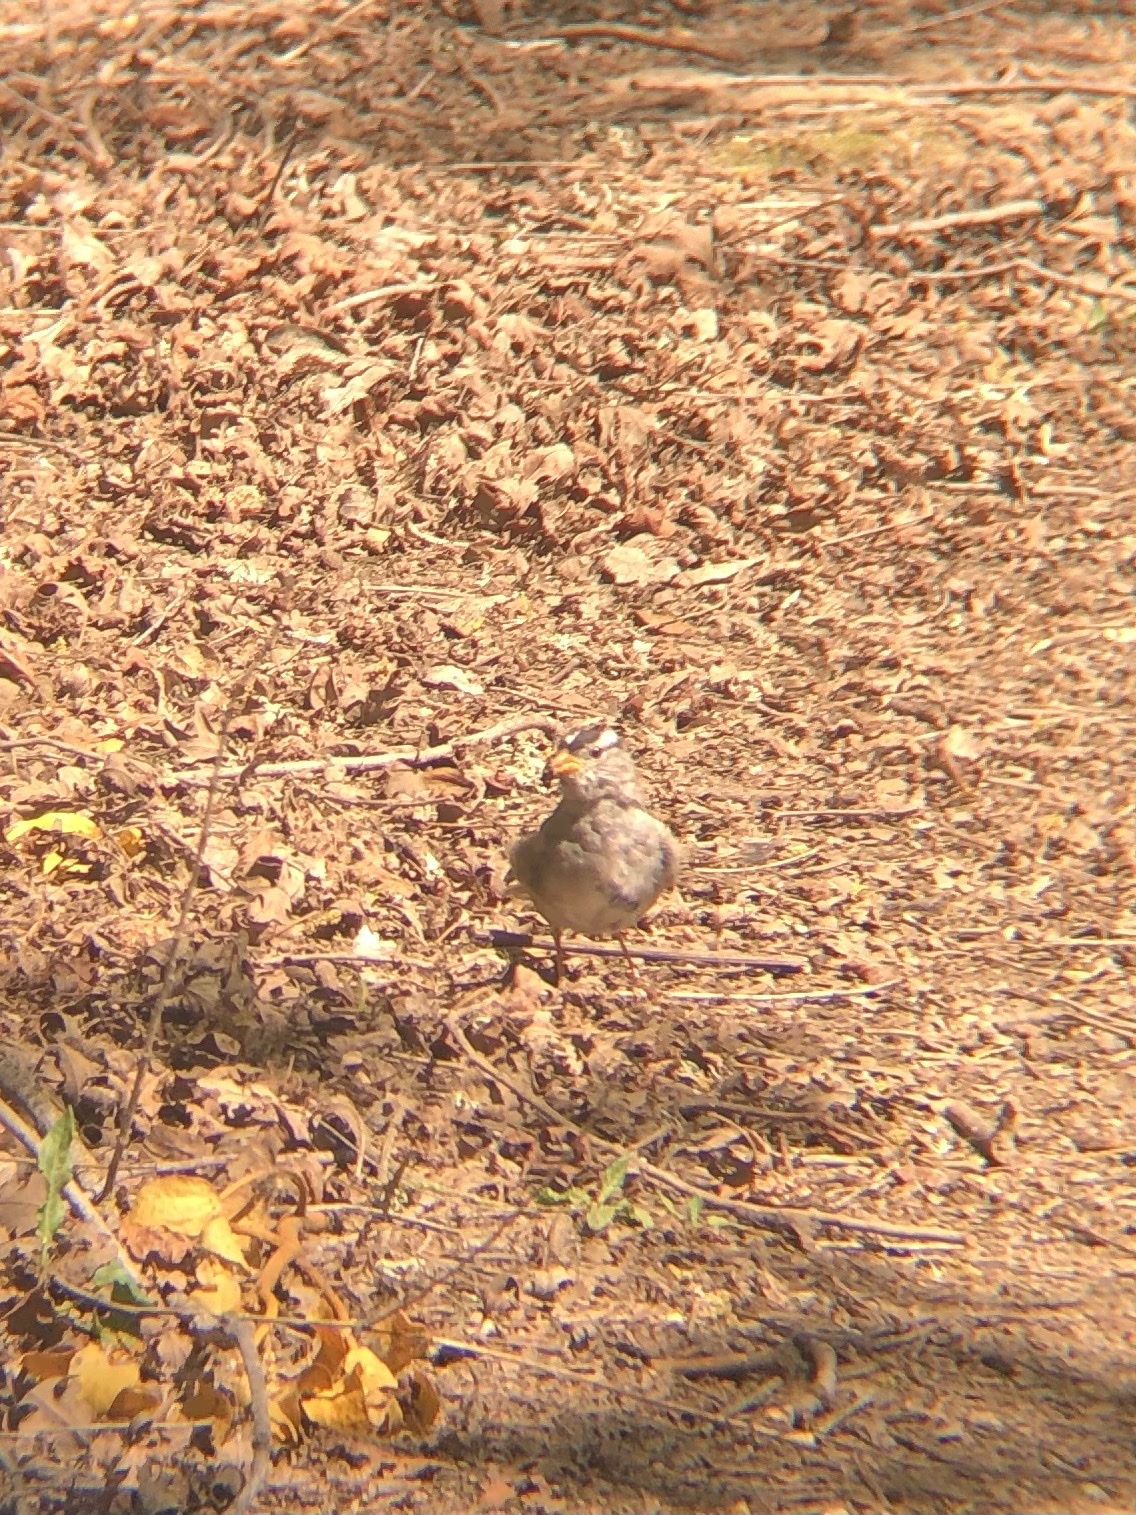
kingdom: Animalia
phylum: Chordata
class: Aves
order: Passeriformes
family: Passerellidae
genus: Zonotrichia
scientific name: Zonotrichia leucophrys
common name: White-crowned sparrow
